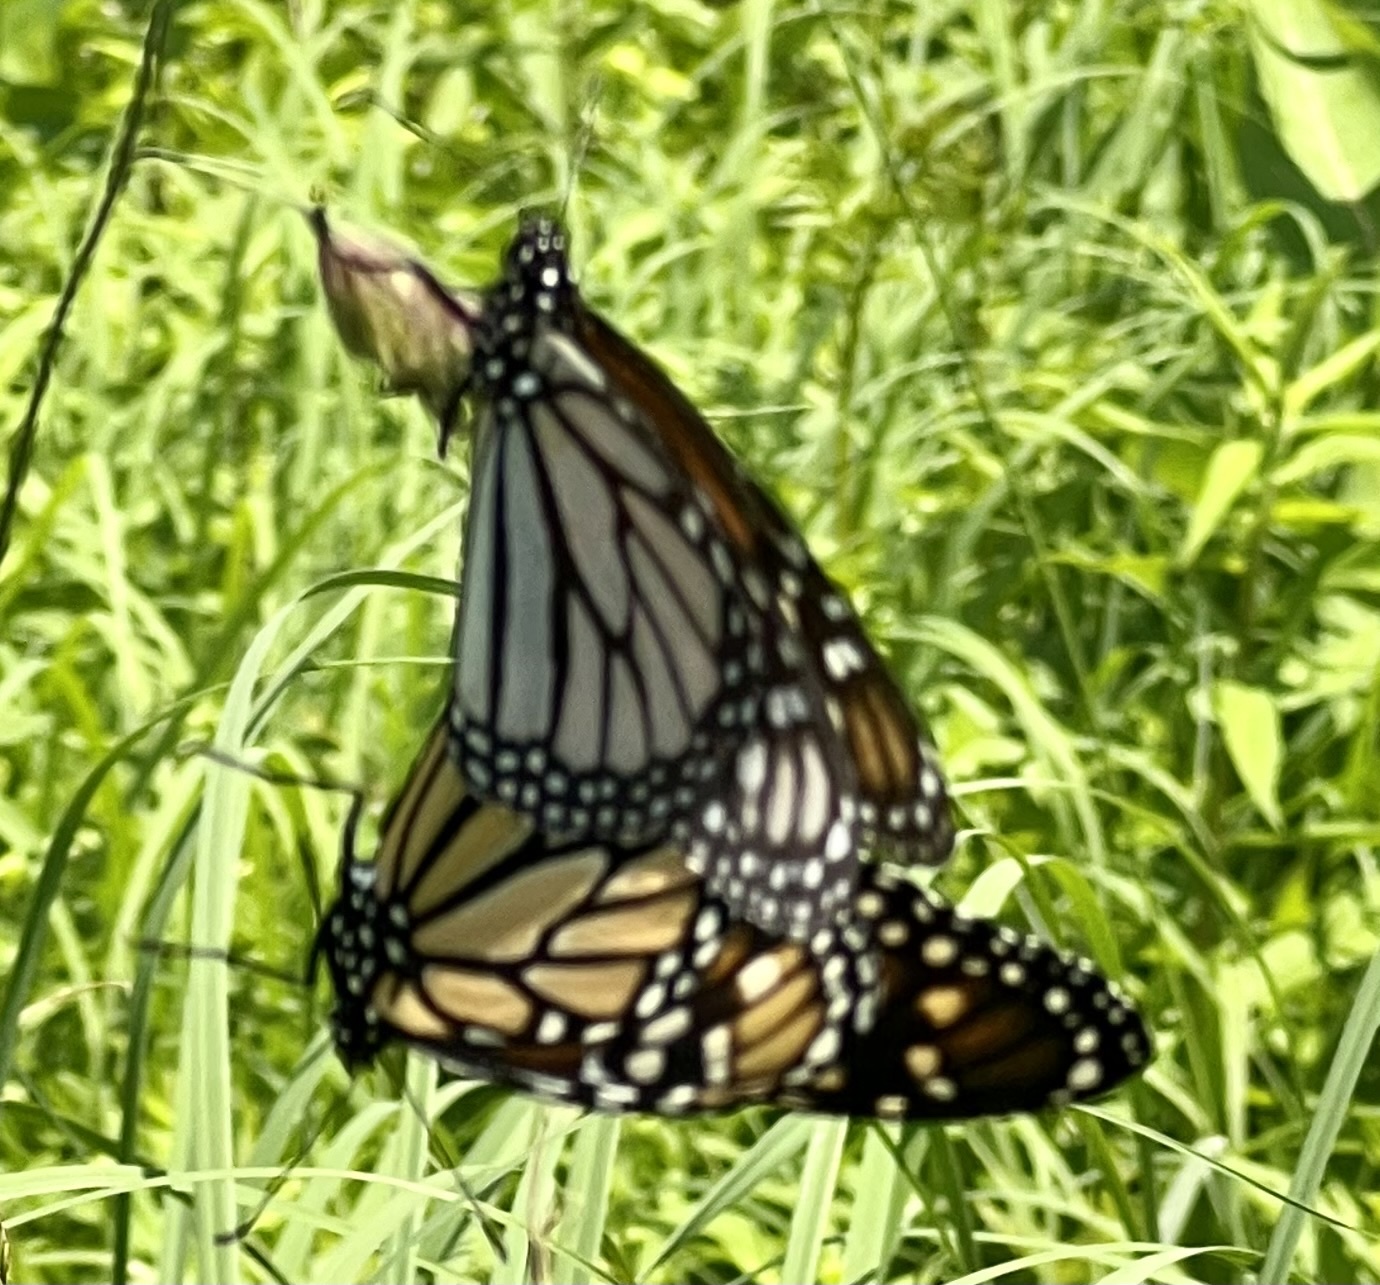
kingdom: Animalia
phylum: Arthropoda
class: Insecta
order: Lepidoptera
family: Nymphalidae
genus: Danaus
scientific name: Danaus plexippus
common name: Monarch
